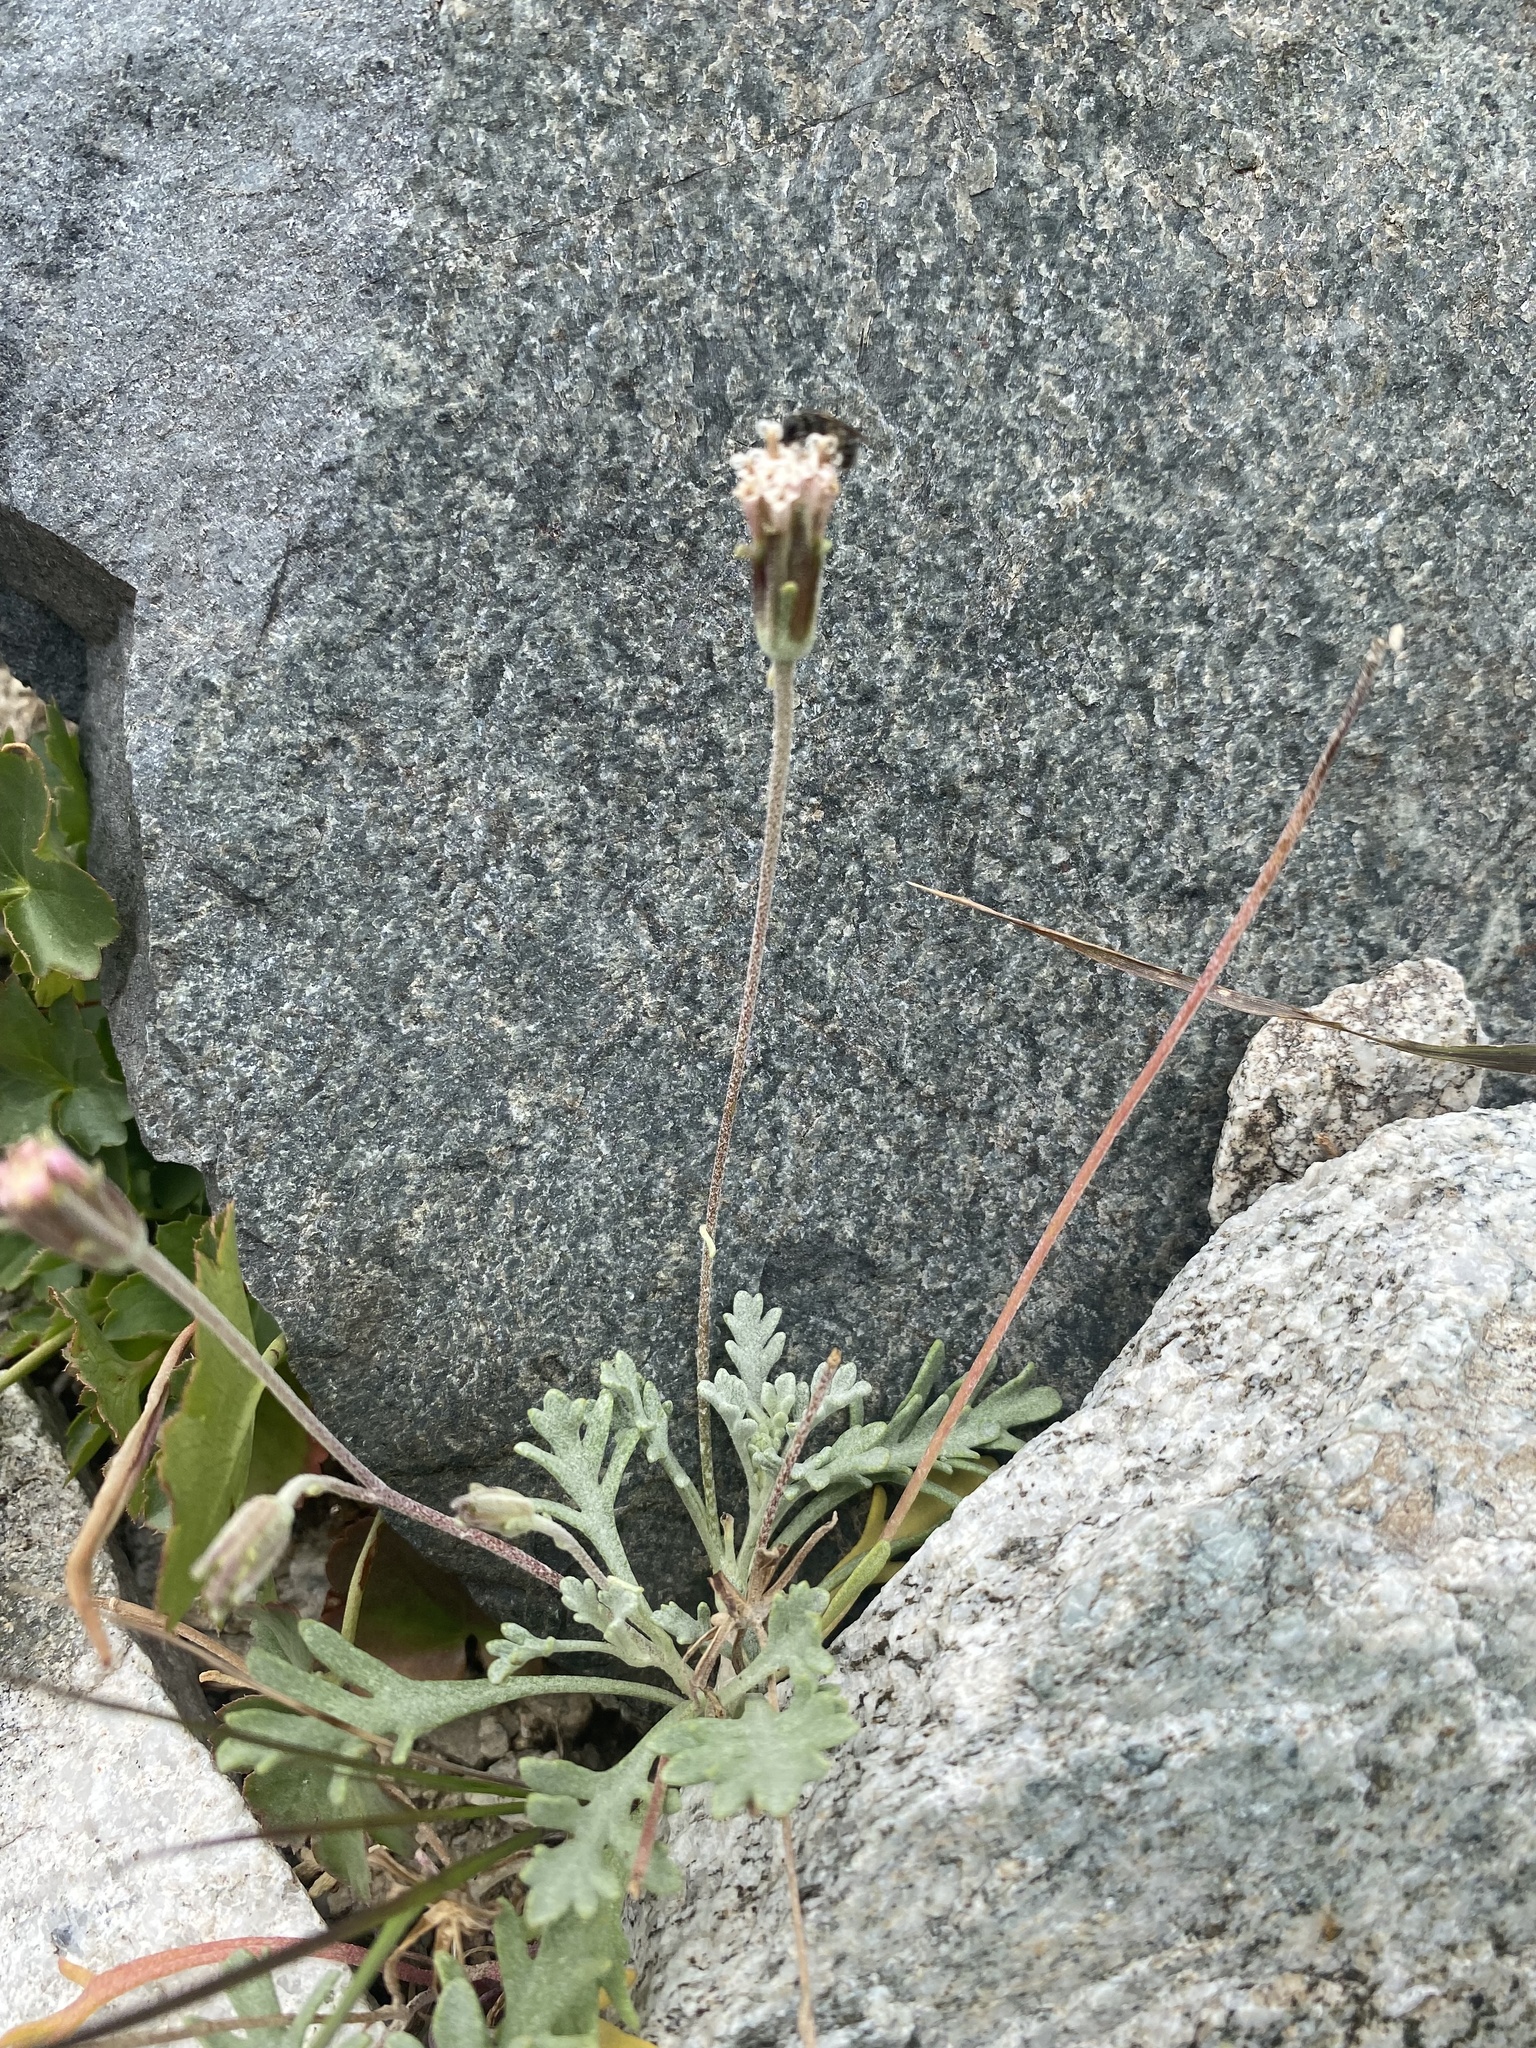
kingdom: Plantae
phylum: Tracheophyta
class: Magnoliopsida
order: Asterales
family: Asteraceae
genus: Chaenactis
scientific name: Chaenactis evermannii
